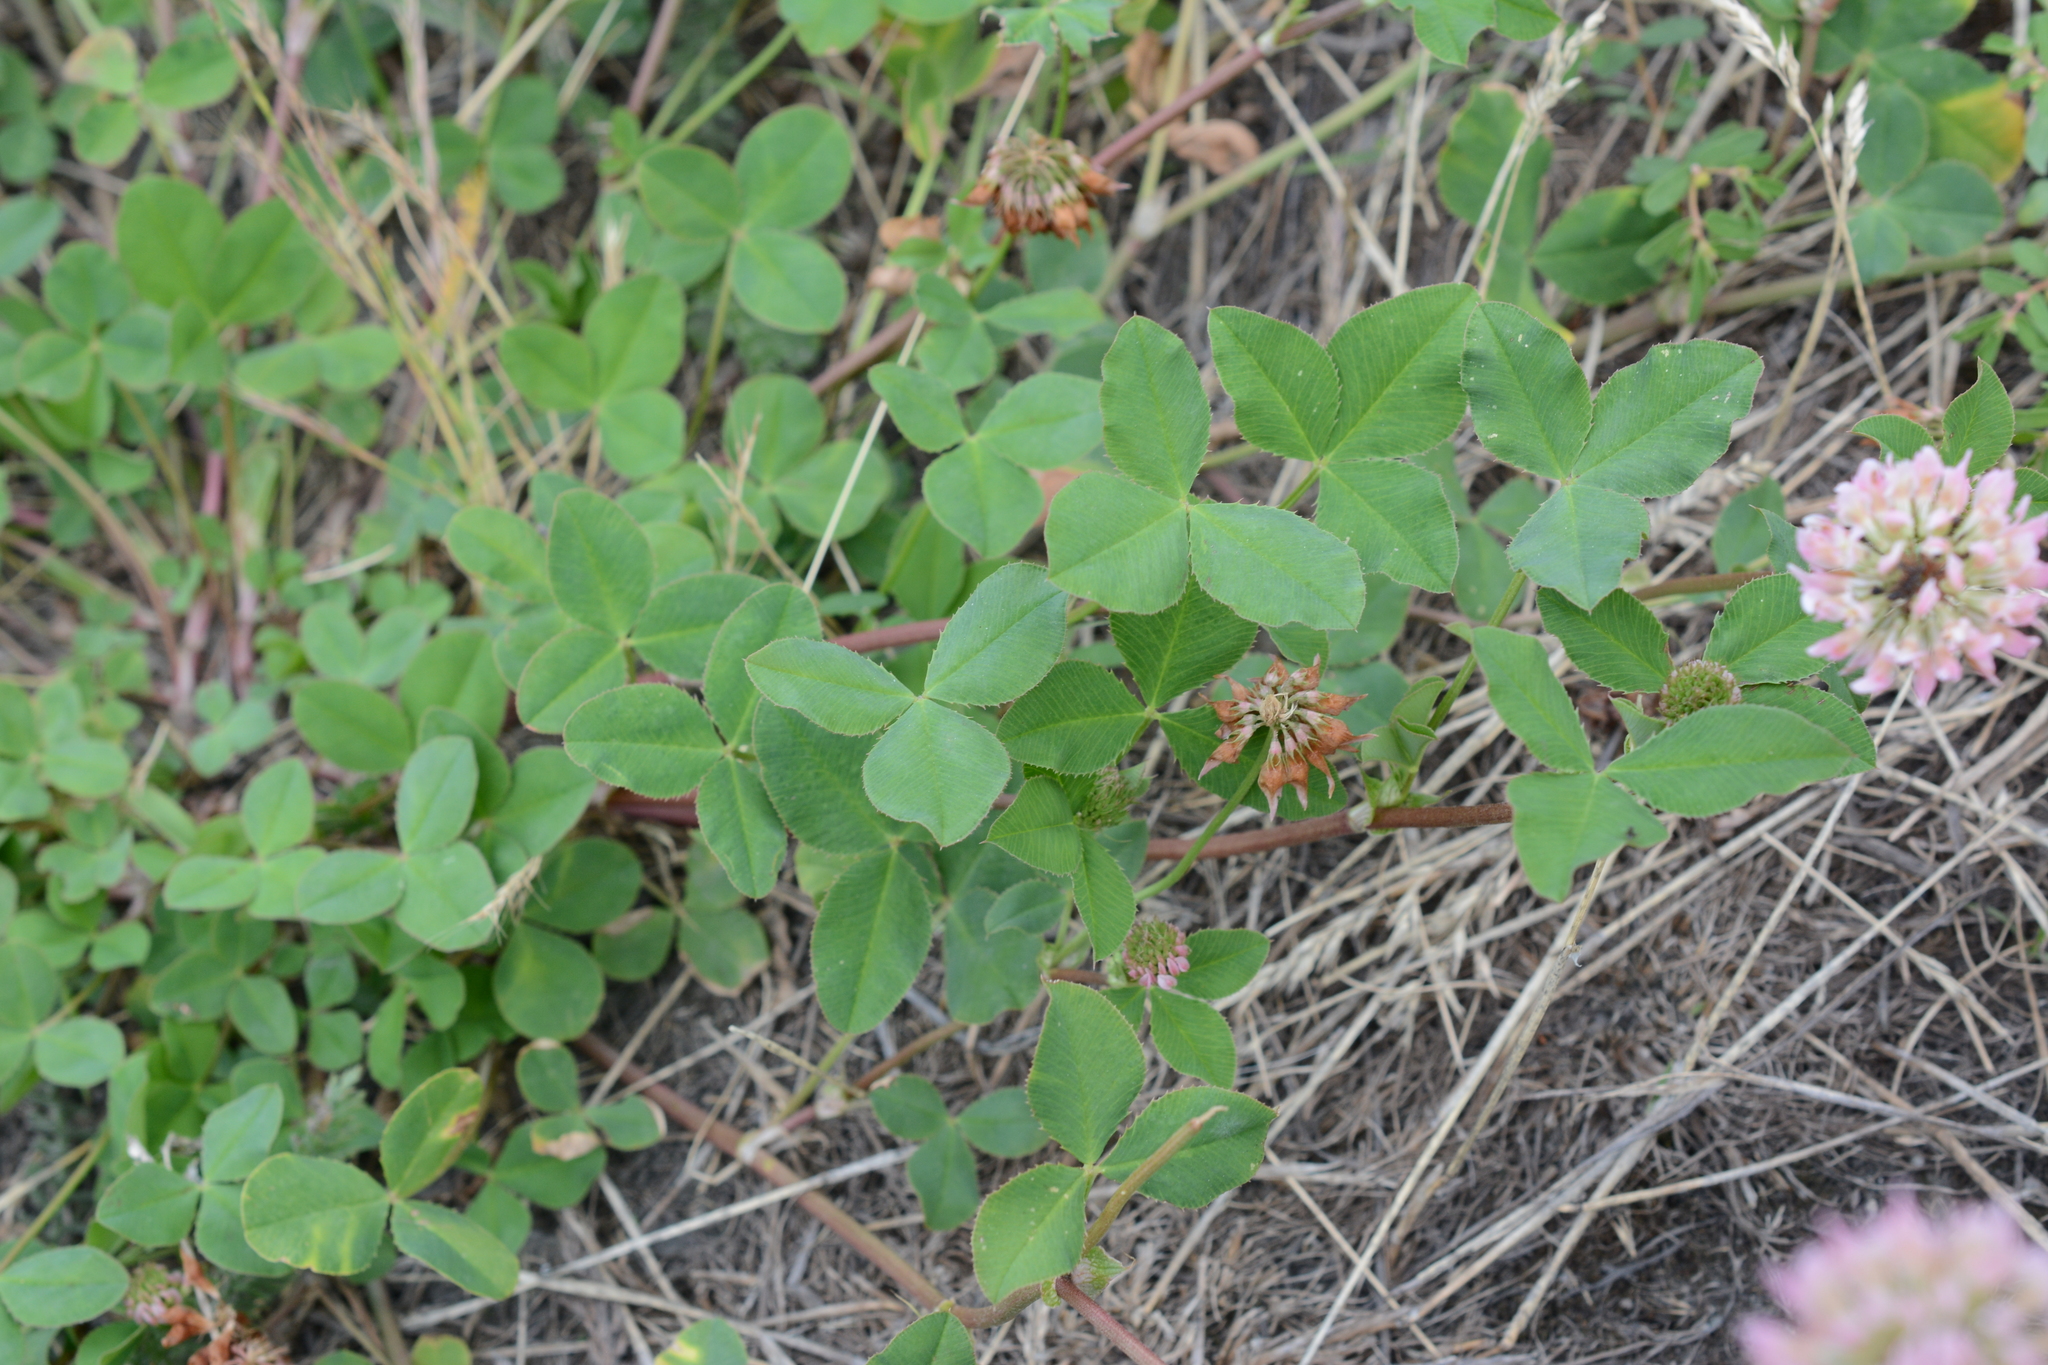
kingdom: Plantae
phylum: Tracheophyta
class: Magnoliopsida
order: Fabales
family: Fabaceae
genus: Trifolium
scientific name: Trifolium hybridum
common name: Alsike clover
